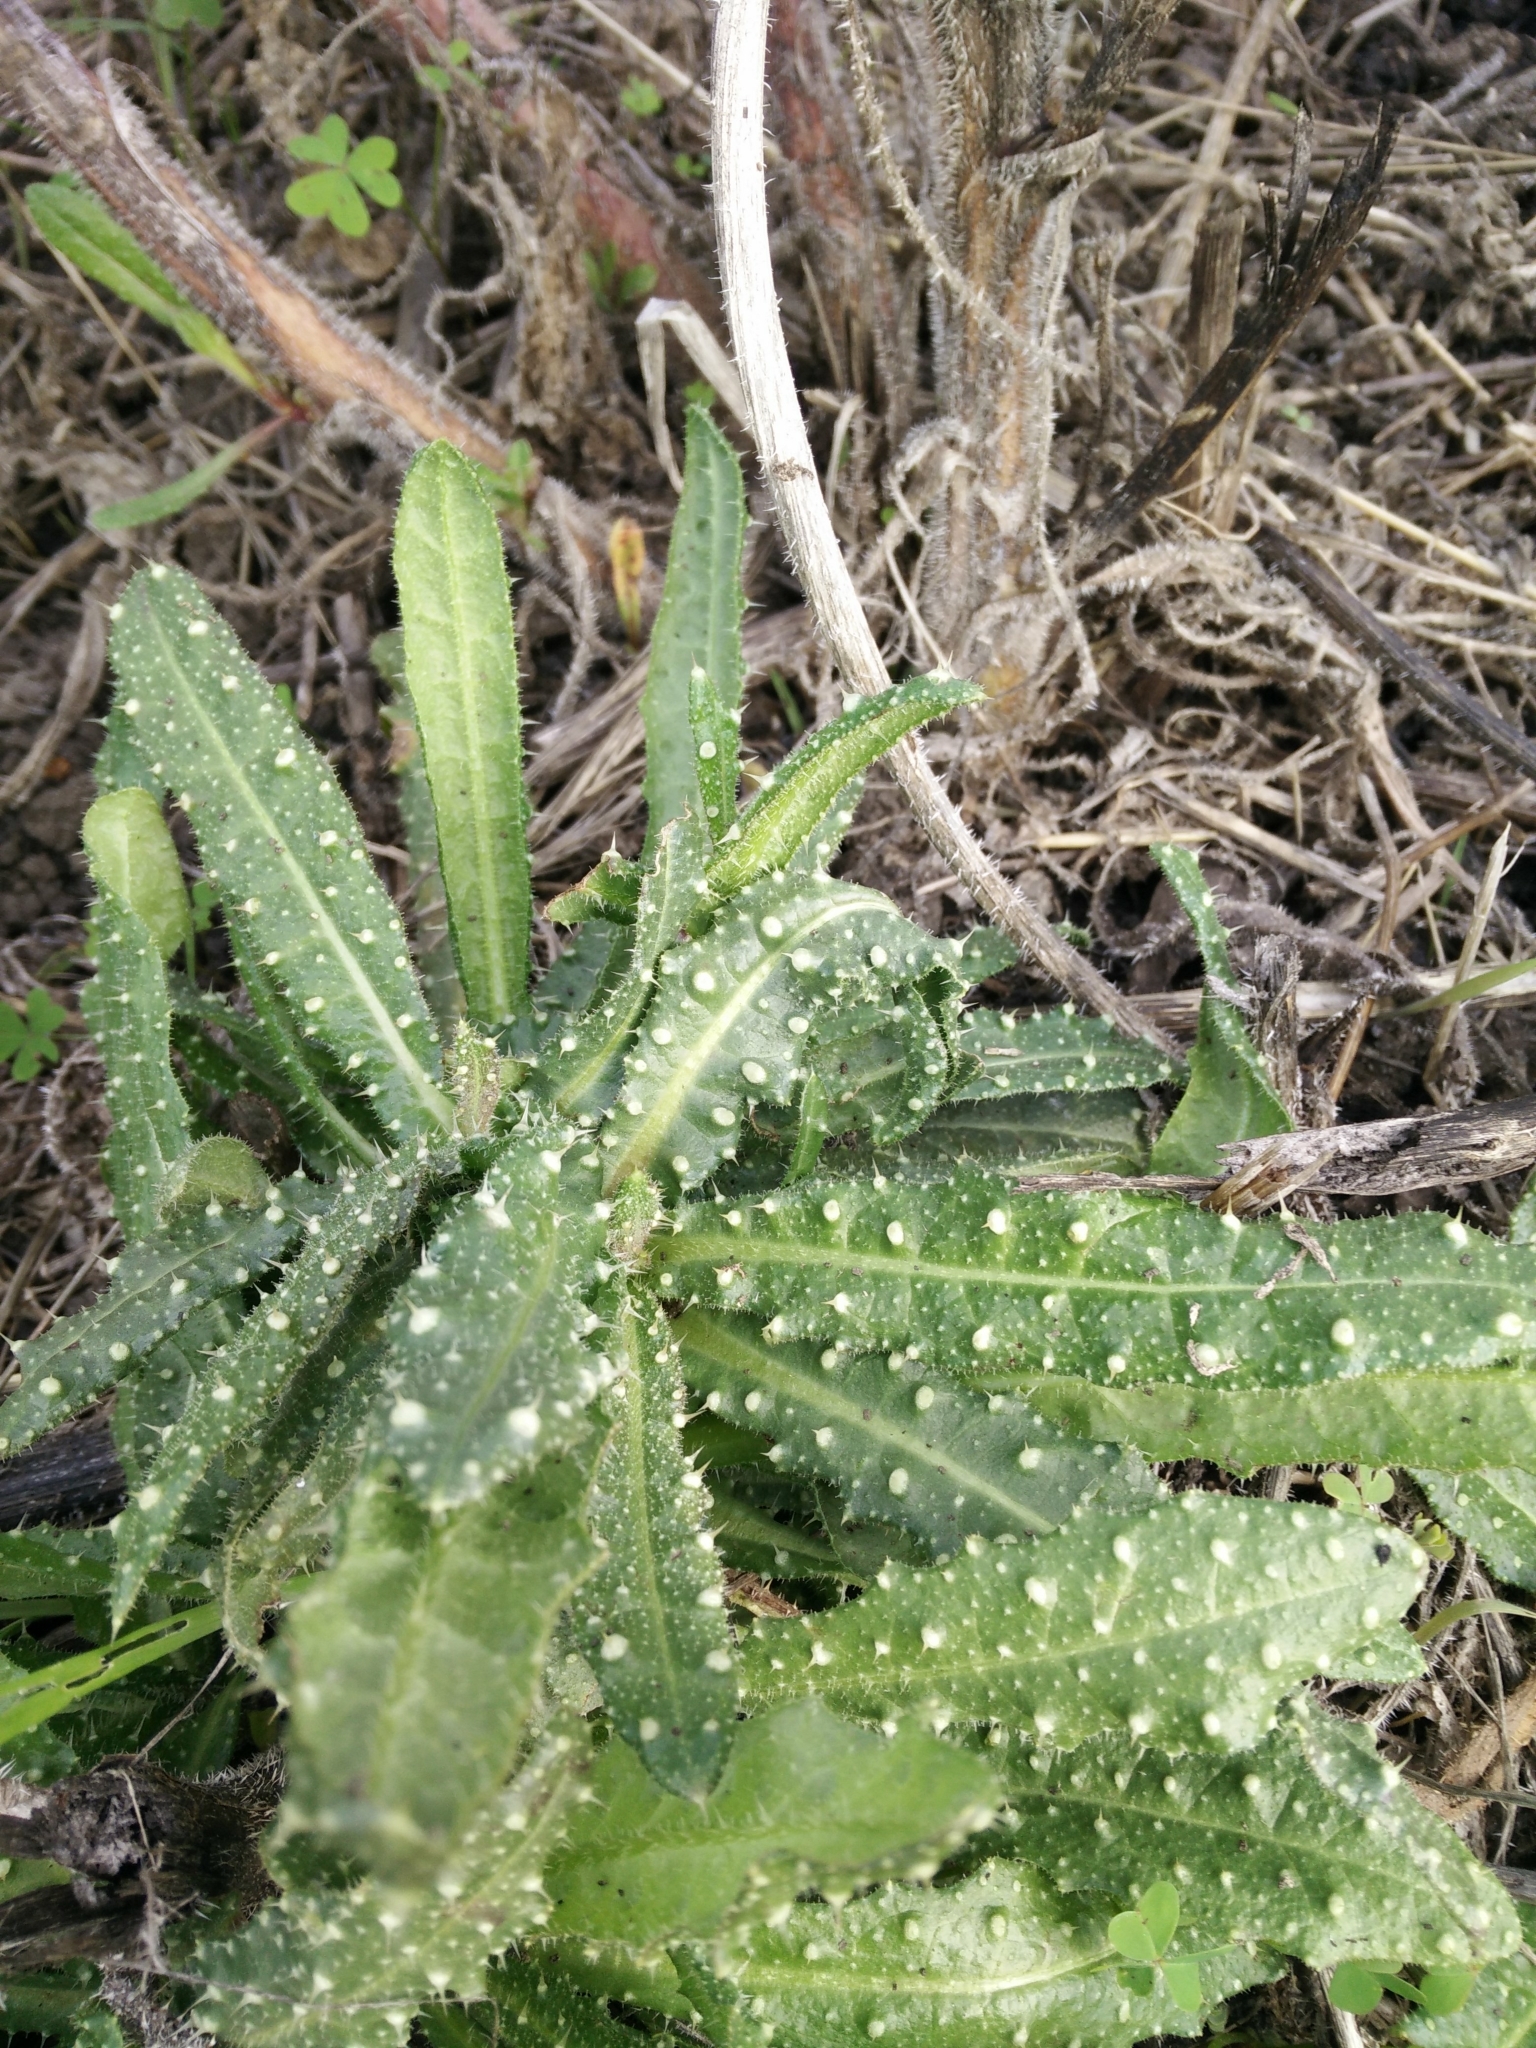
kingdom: Plantae
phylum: Tracheophyta
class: Magnoliopsida
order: Asterales
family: Asteraceae
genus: Helminthotheca
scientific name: Helminthotheca echioides
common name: Ox-tongue
